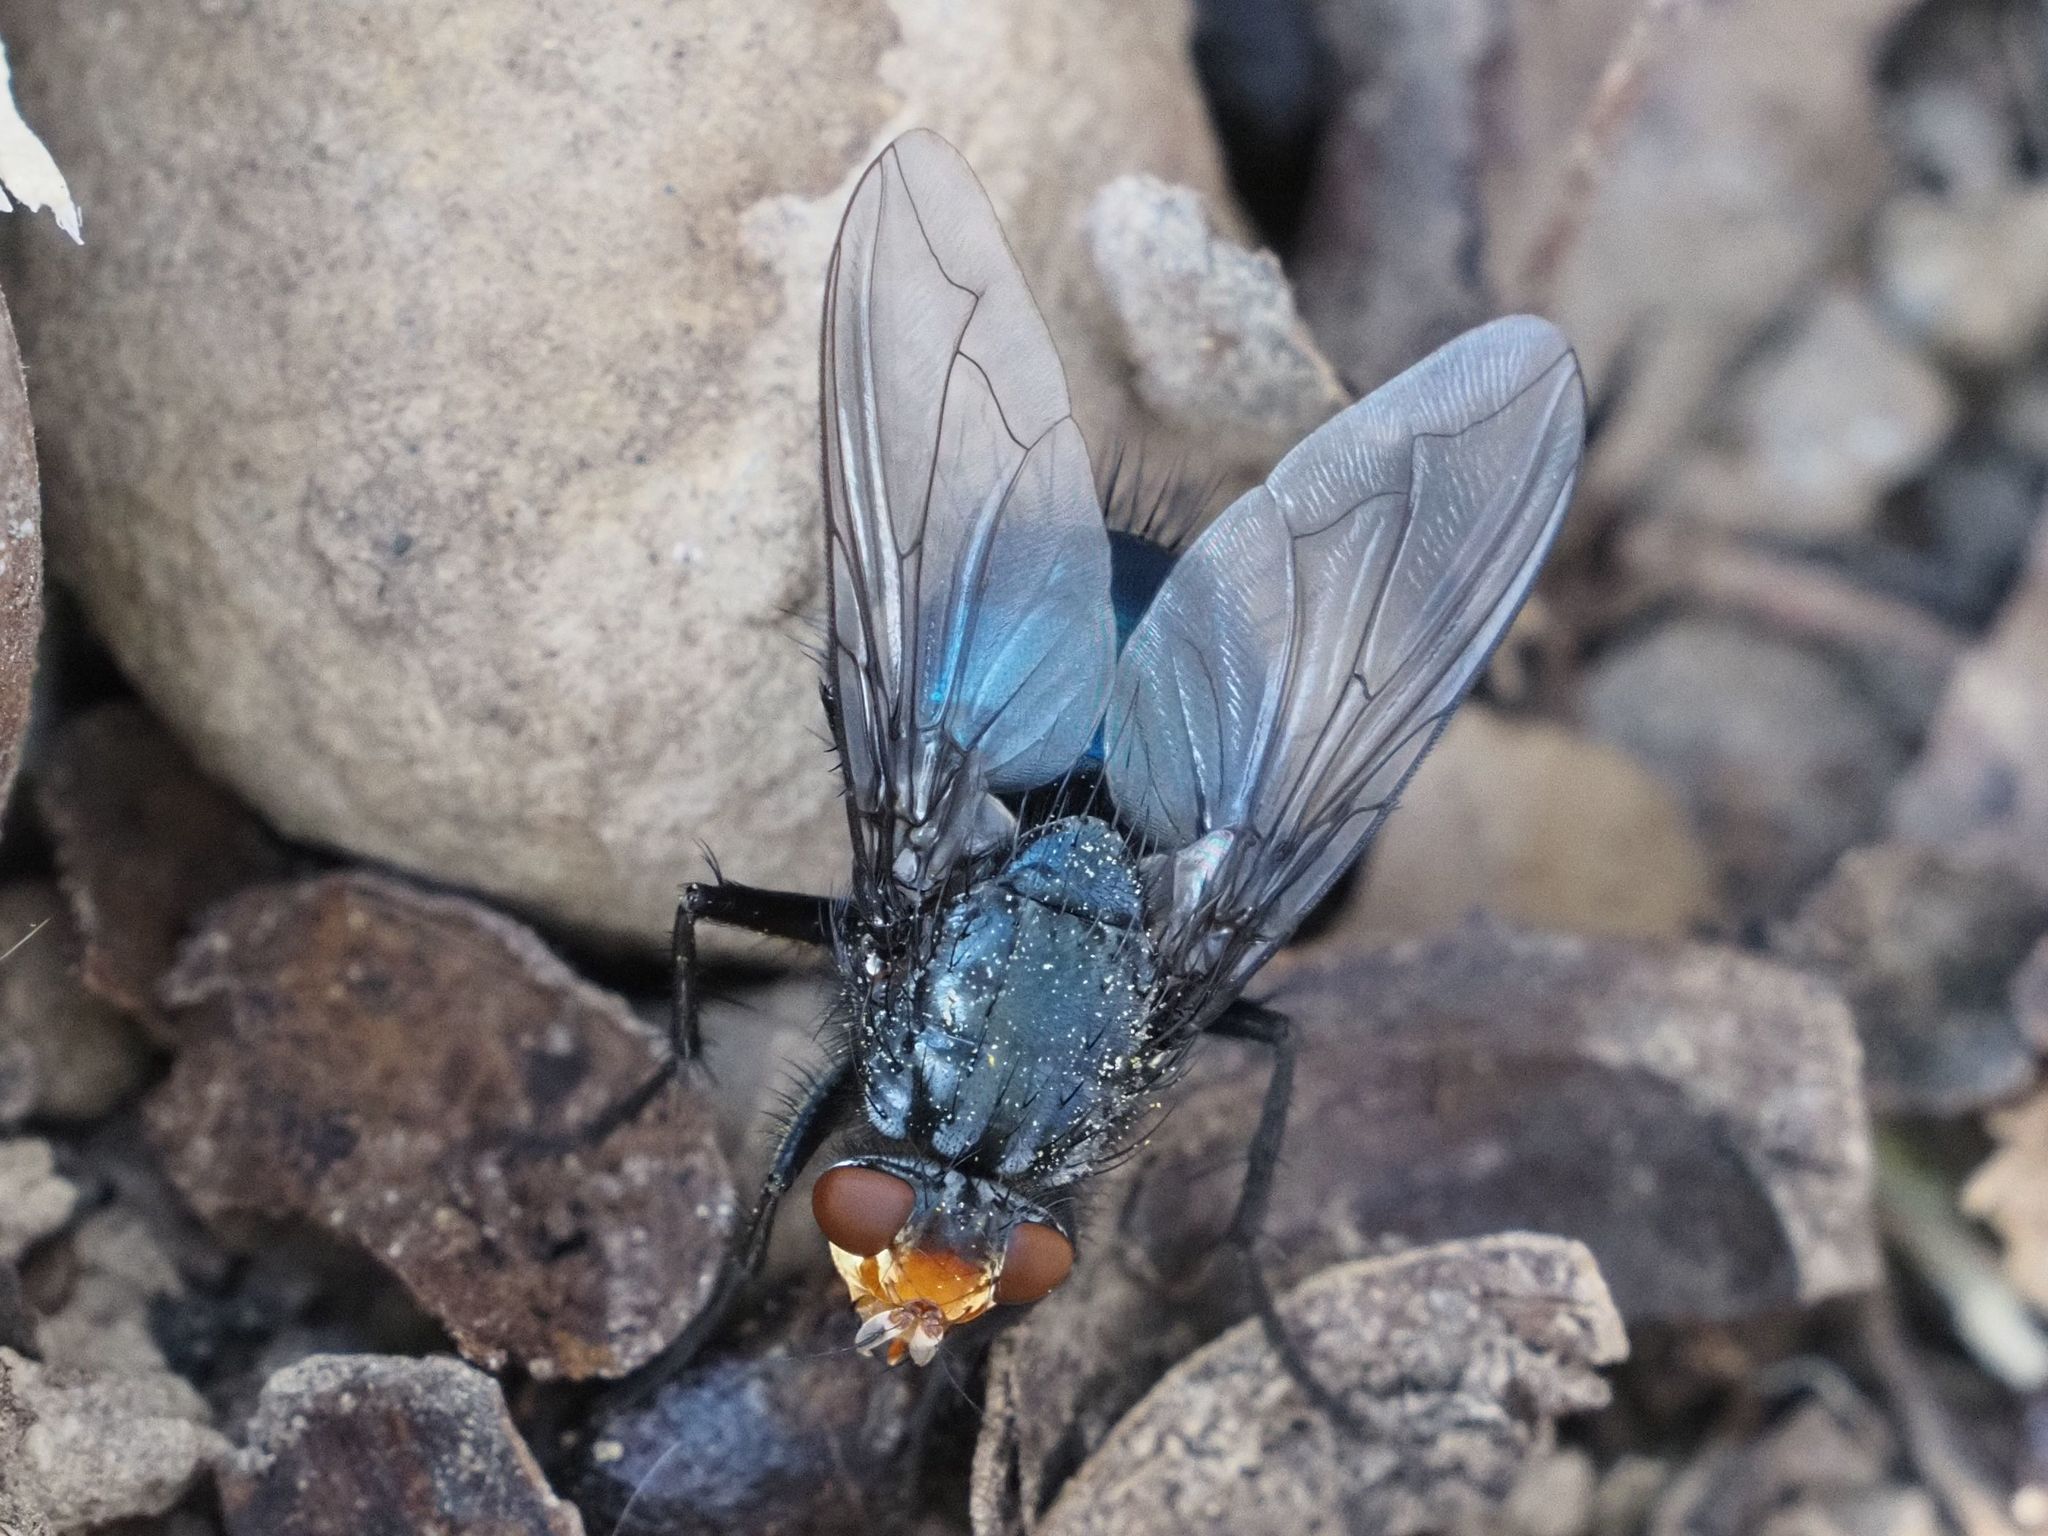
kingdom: Animalia
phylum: Arthropoda
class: Insecta
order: Diptera
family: Calliphoridae
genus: Cynomya
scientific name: Cynomya mortuorum
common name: Bluebottle blow fly
